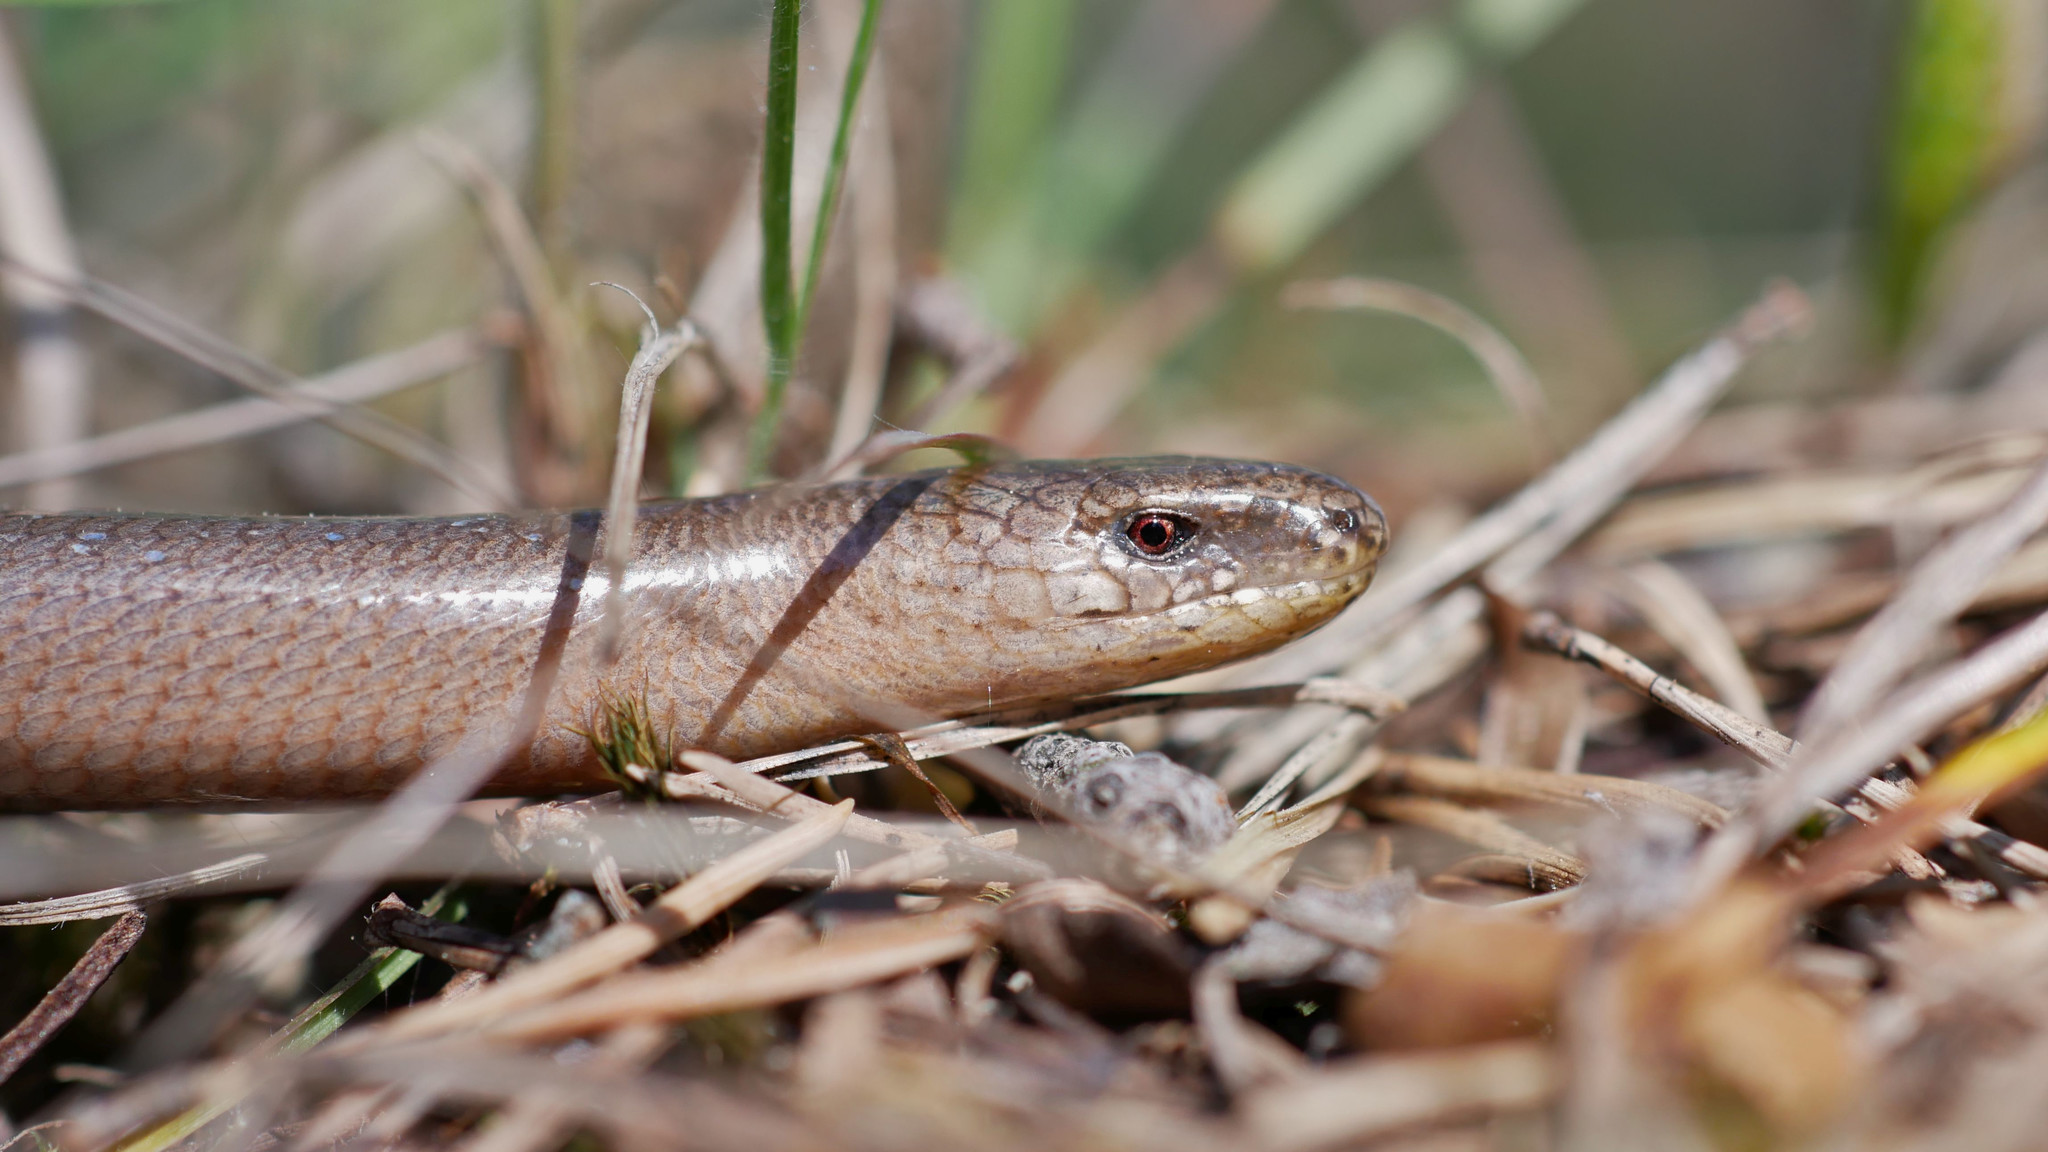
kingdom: Animalia
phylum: Chordata
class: Squamata
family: Anguidae
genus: Anguis
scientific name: Anguis fragilis
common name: Slow worm
